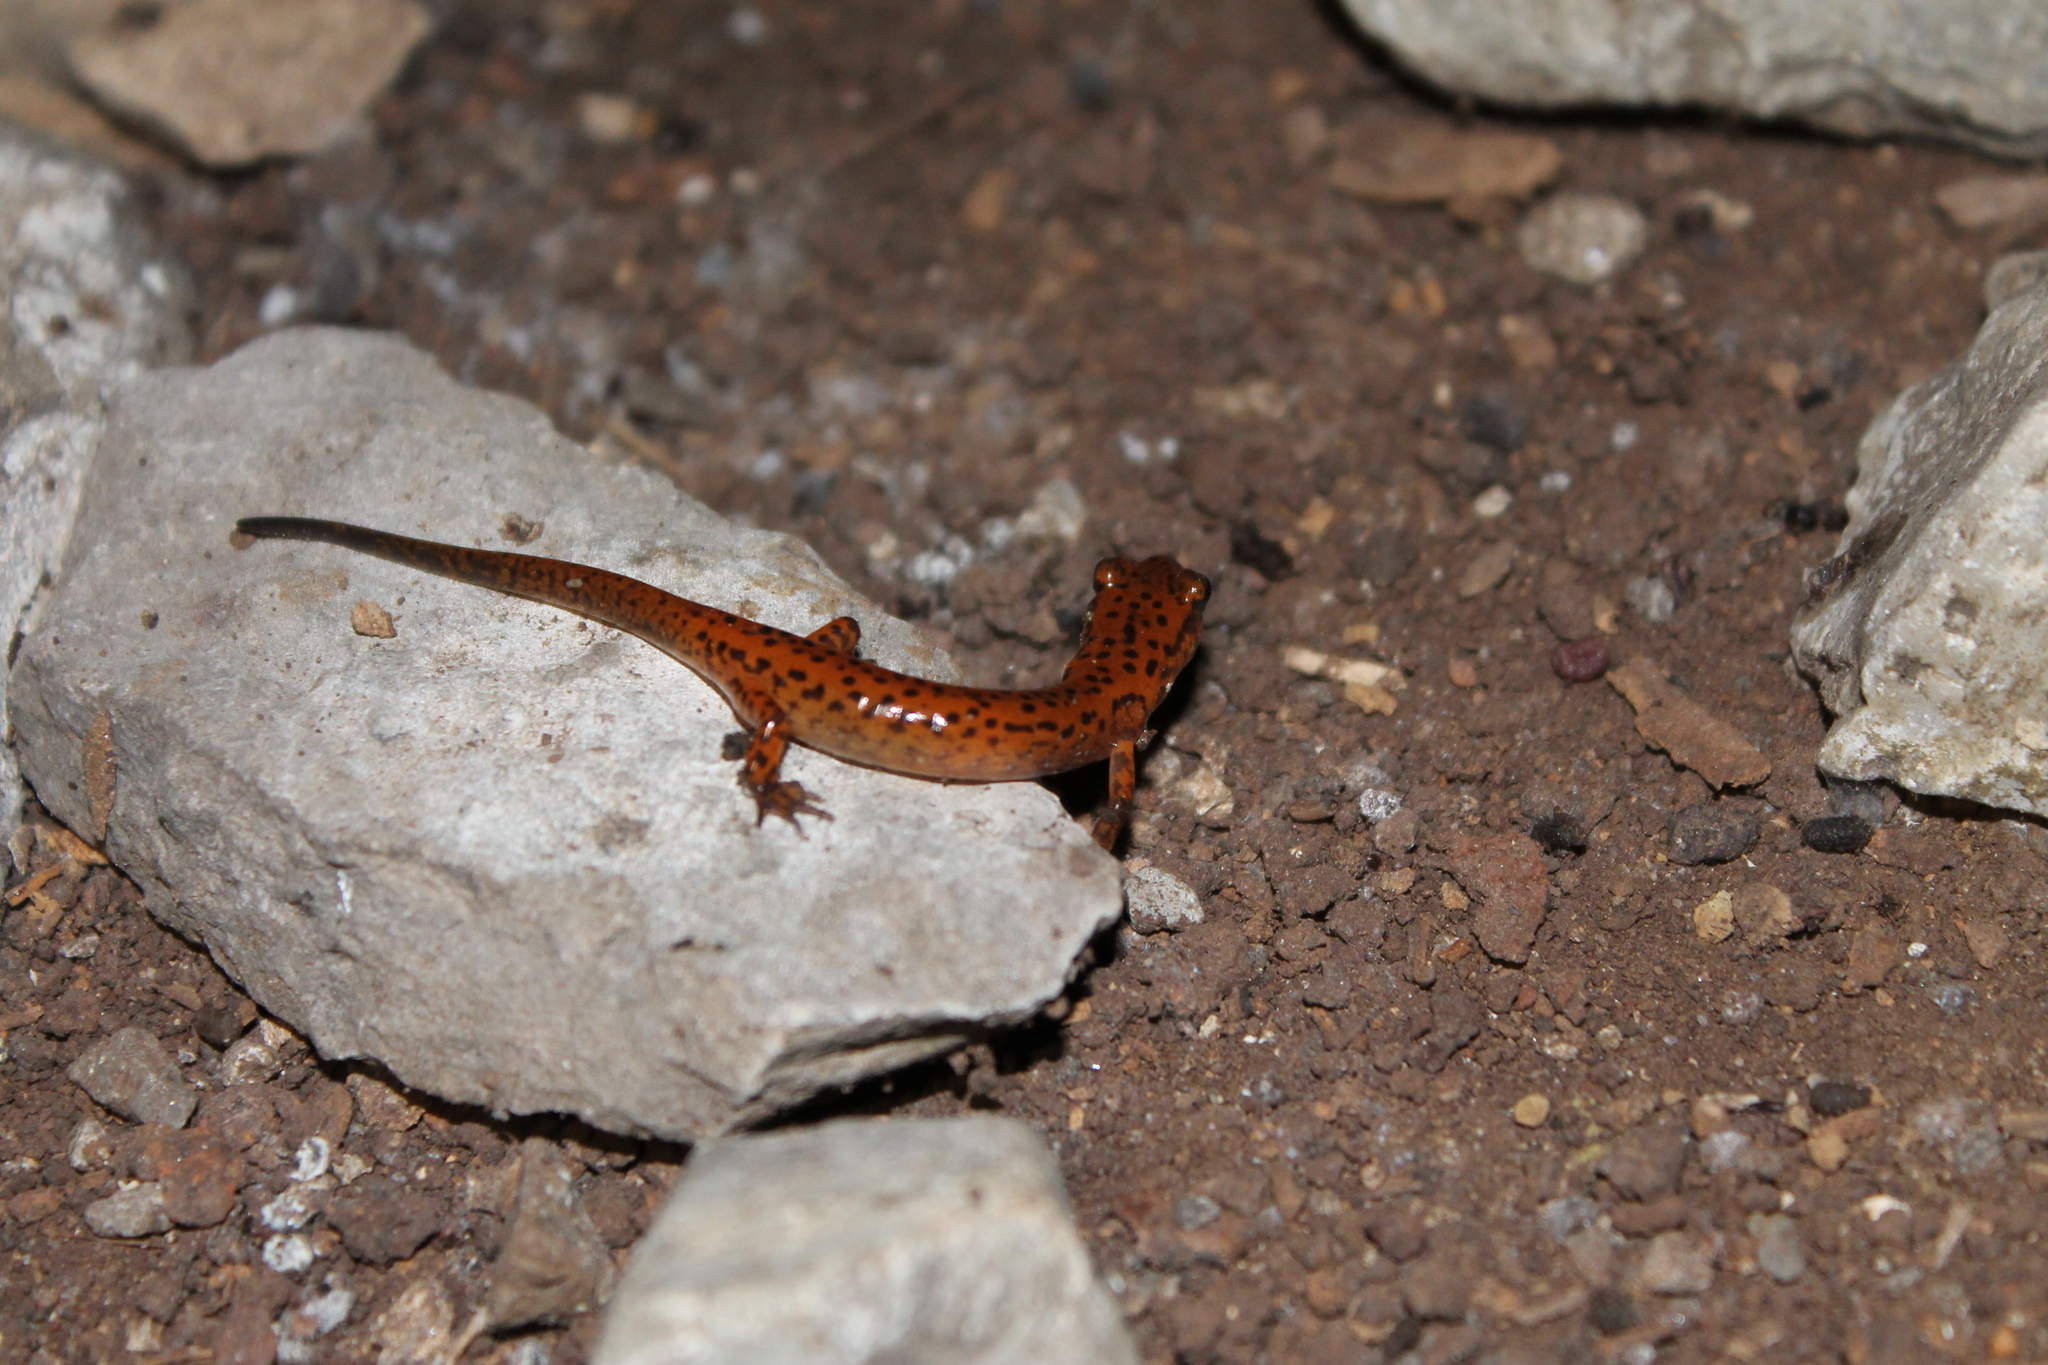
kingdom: Animalia
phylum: Chordata
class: Amphibia
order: Caudata
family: Plethodontidae
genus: Eurycea
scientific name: Eurycea lucifuga
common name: Cave salamander
